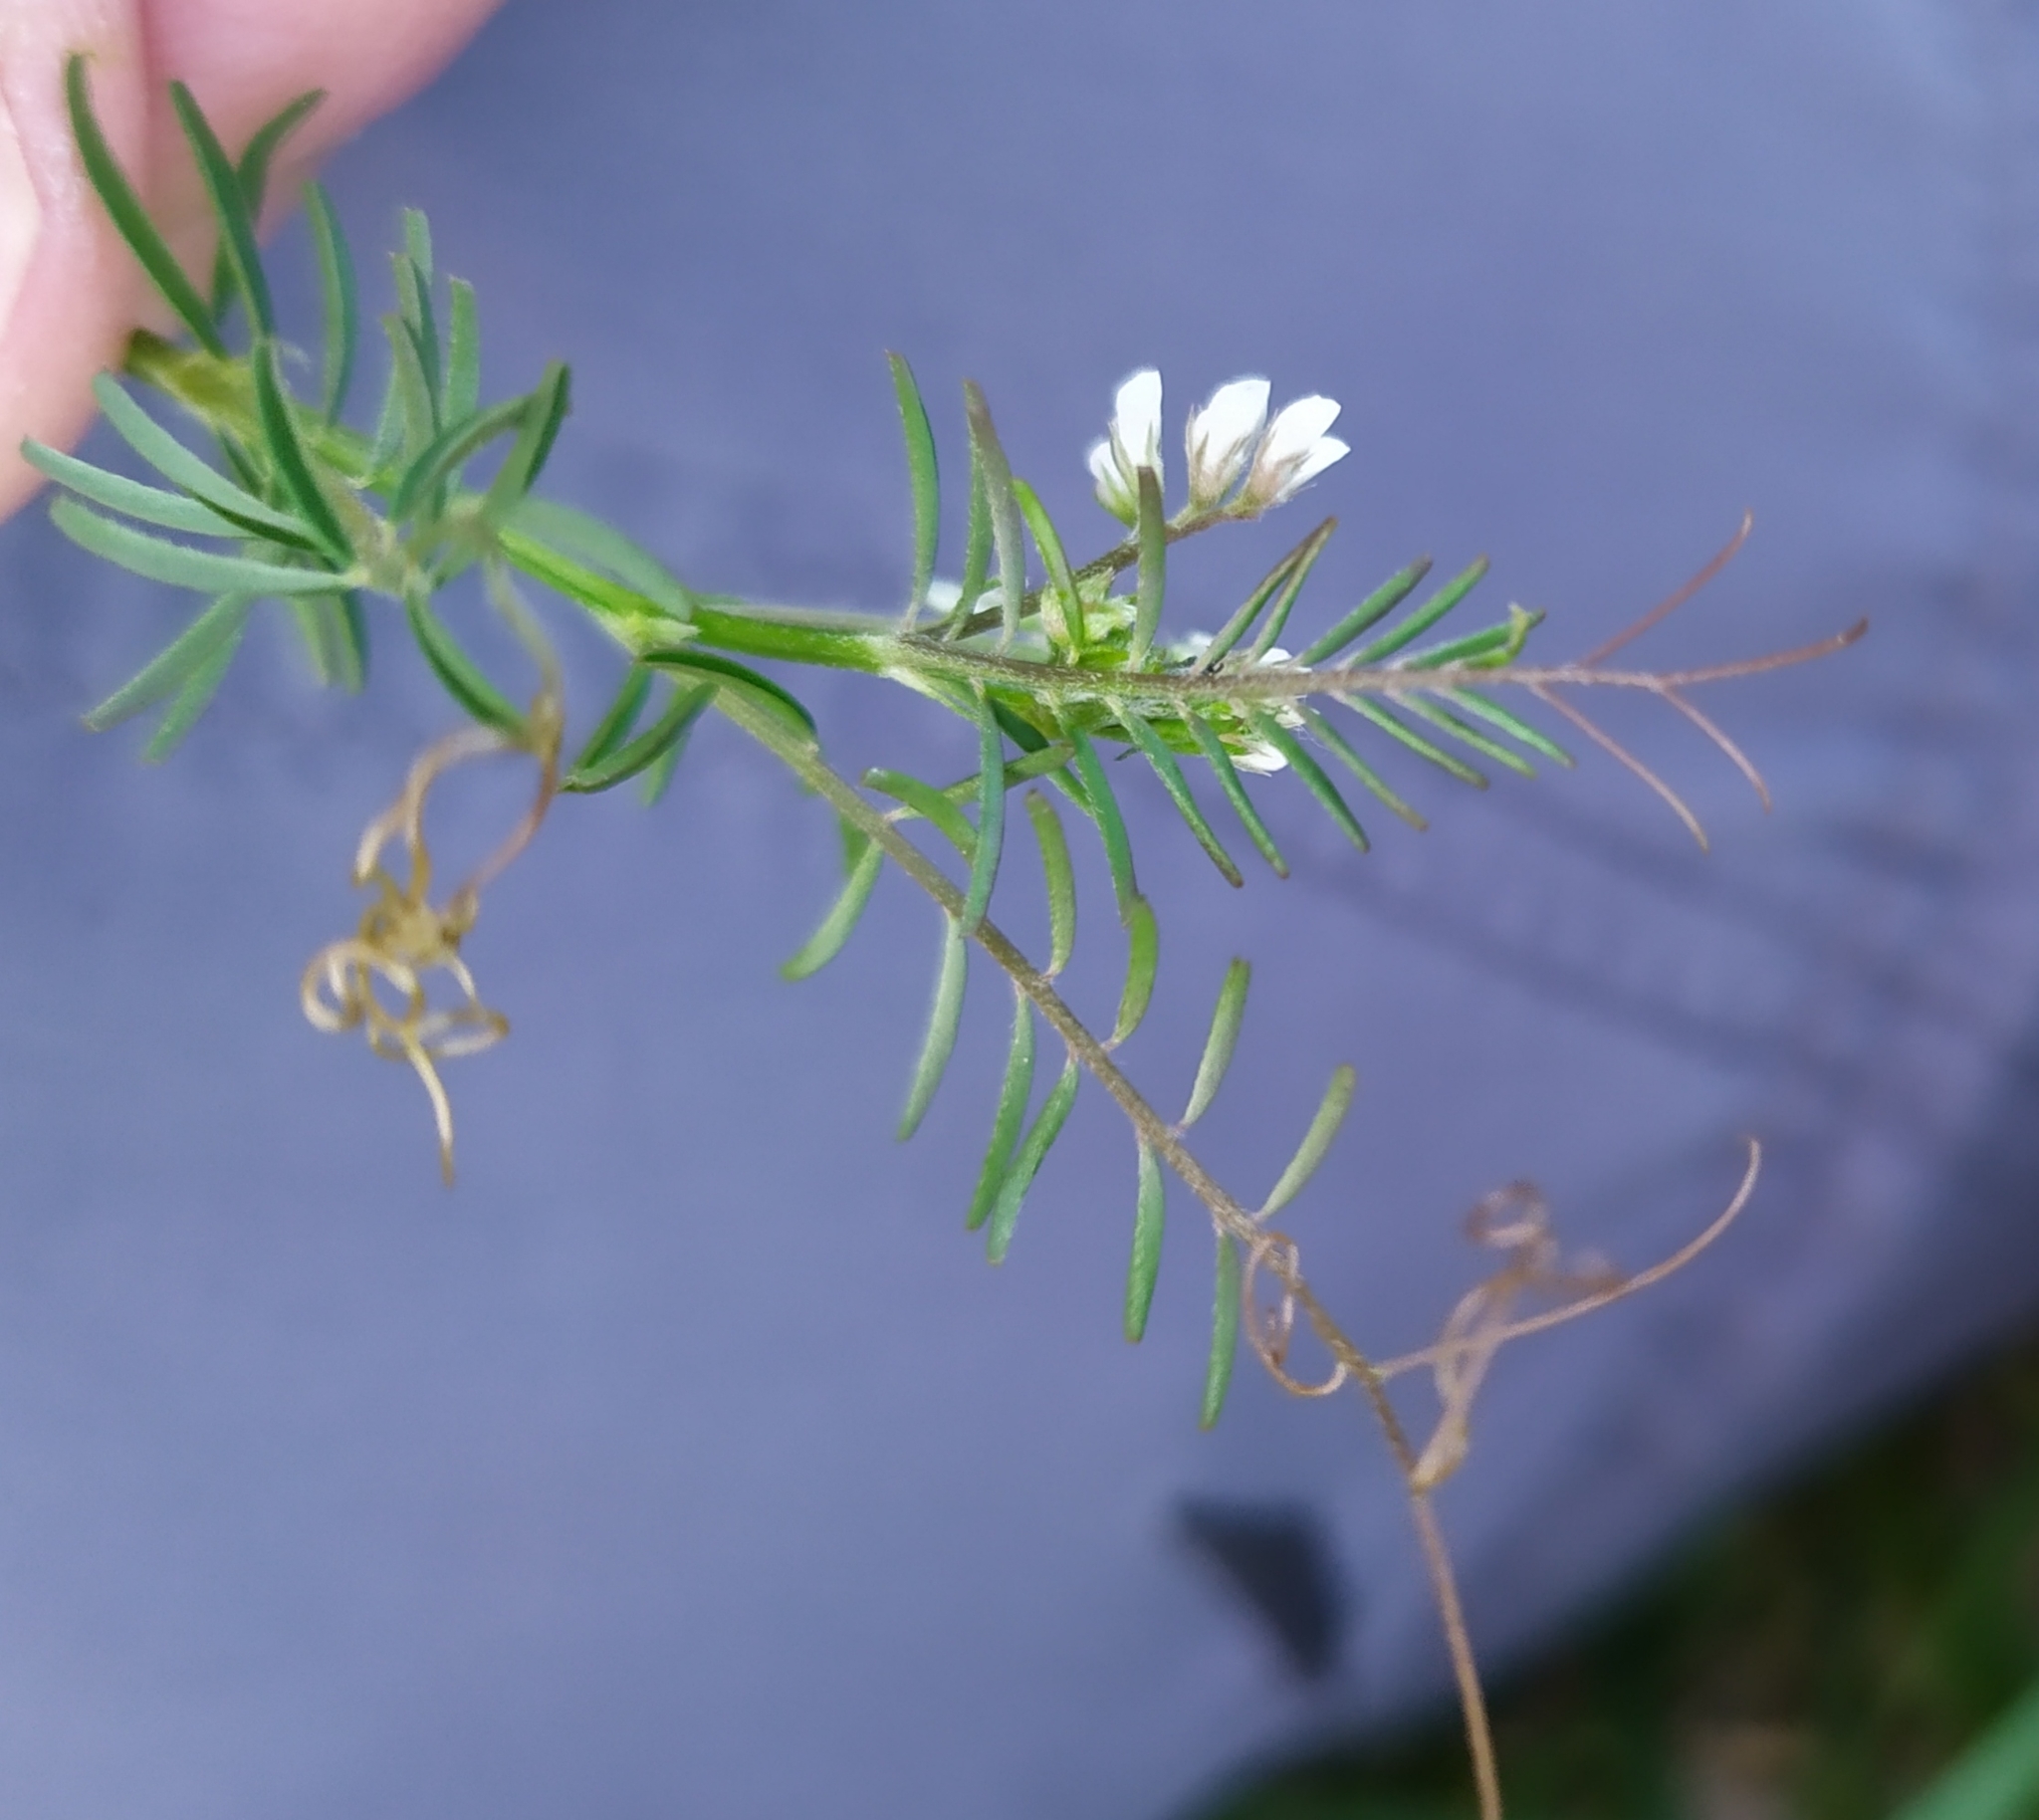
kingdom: Plantae
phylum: Tracheophyta
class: Magnoliopsida
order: Fabales
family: Fabaceae
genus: Vicia
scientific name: Vicia hirsuta
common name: Tiny vetch
